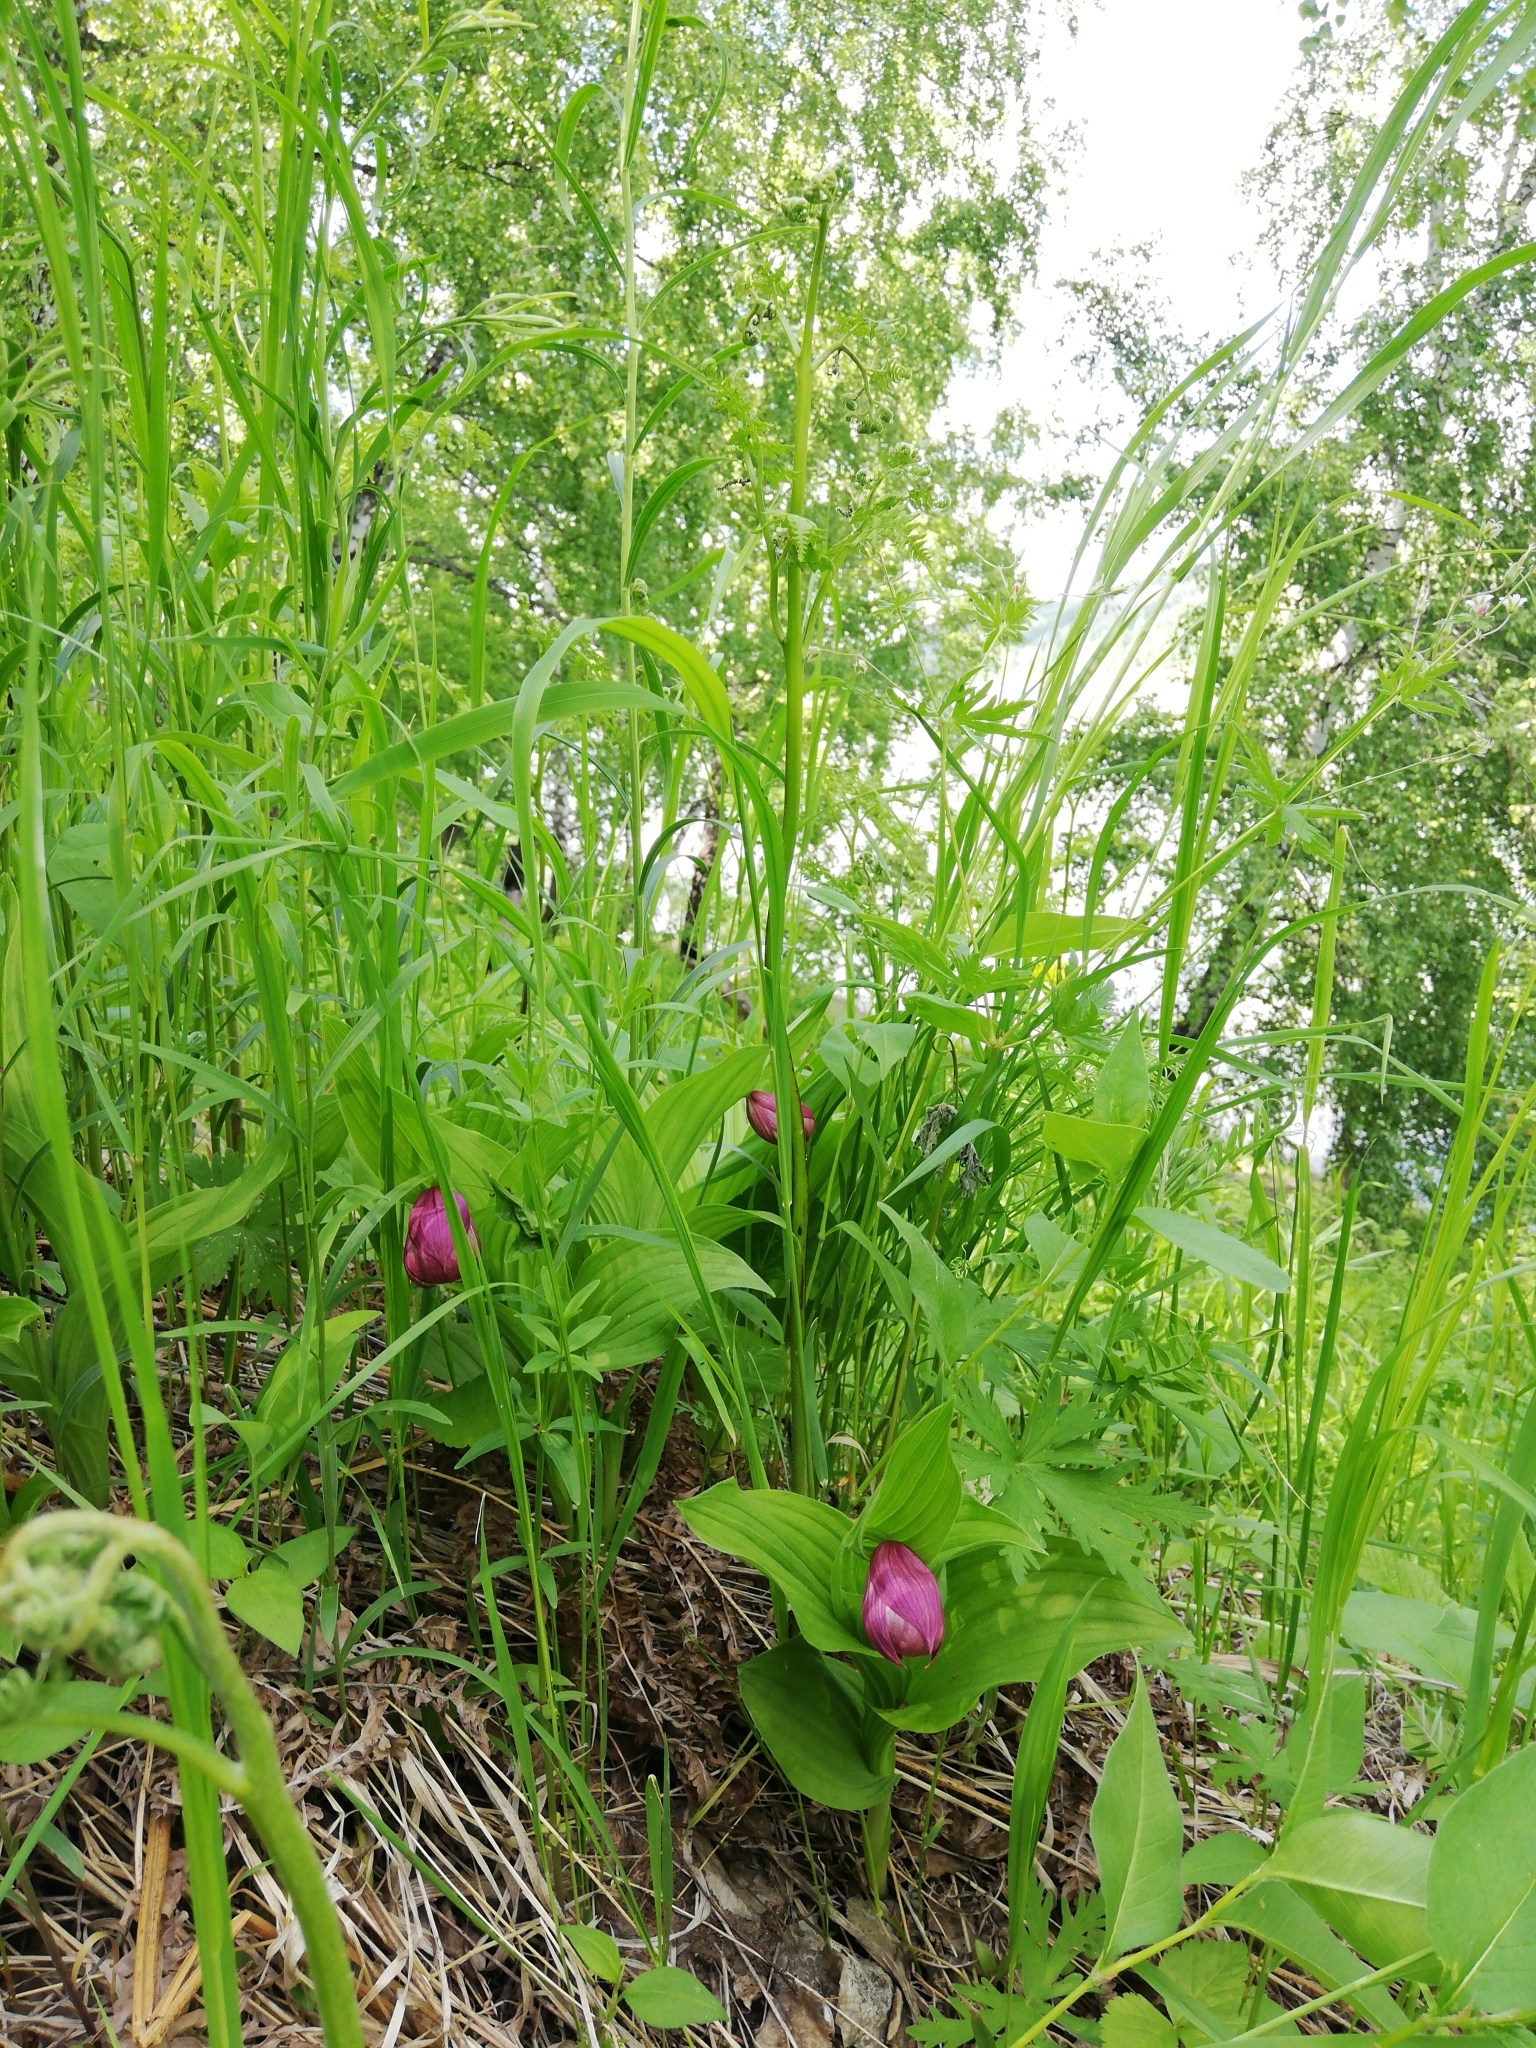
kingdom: Plantae
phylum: Tracheophyta
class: Liliopsida
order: Asparagales
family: Orchidaceae
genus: Cypripedium
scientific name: Cypripedium macranthos
